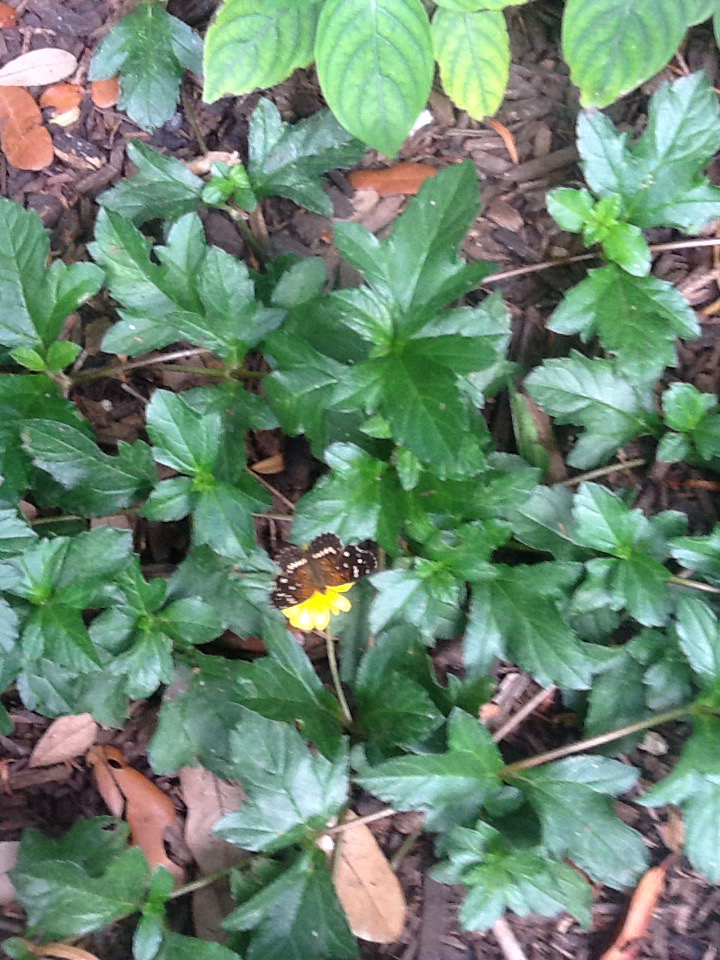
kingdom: Animalia
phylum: Arthropoda
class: Insecta
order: Lepidoptera
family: Nymphalidae
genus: Anthanassa
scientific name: Anthanassa texana
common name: Texan crescent
